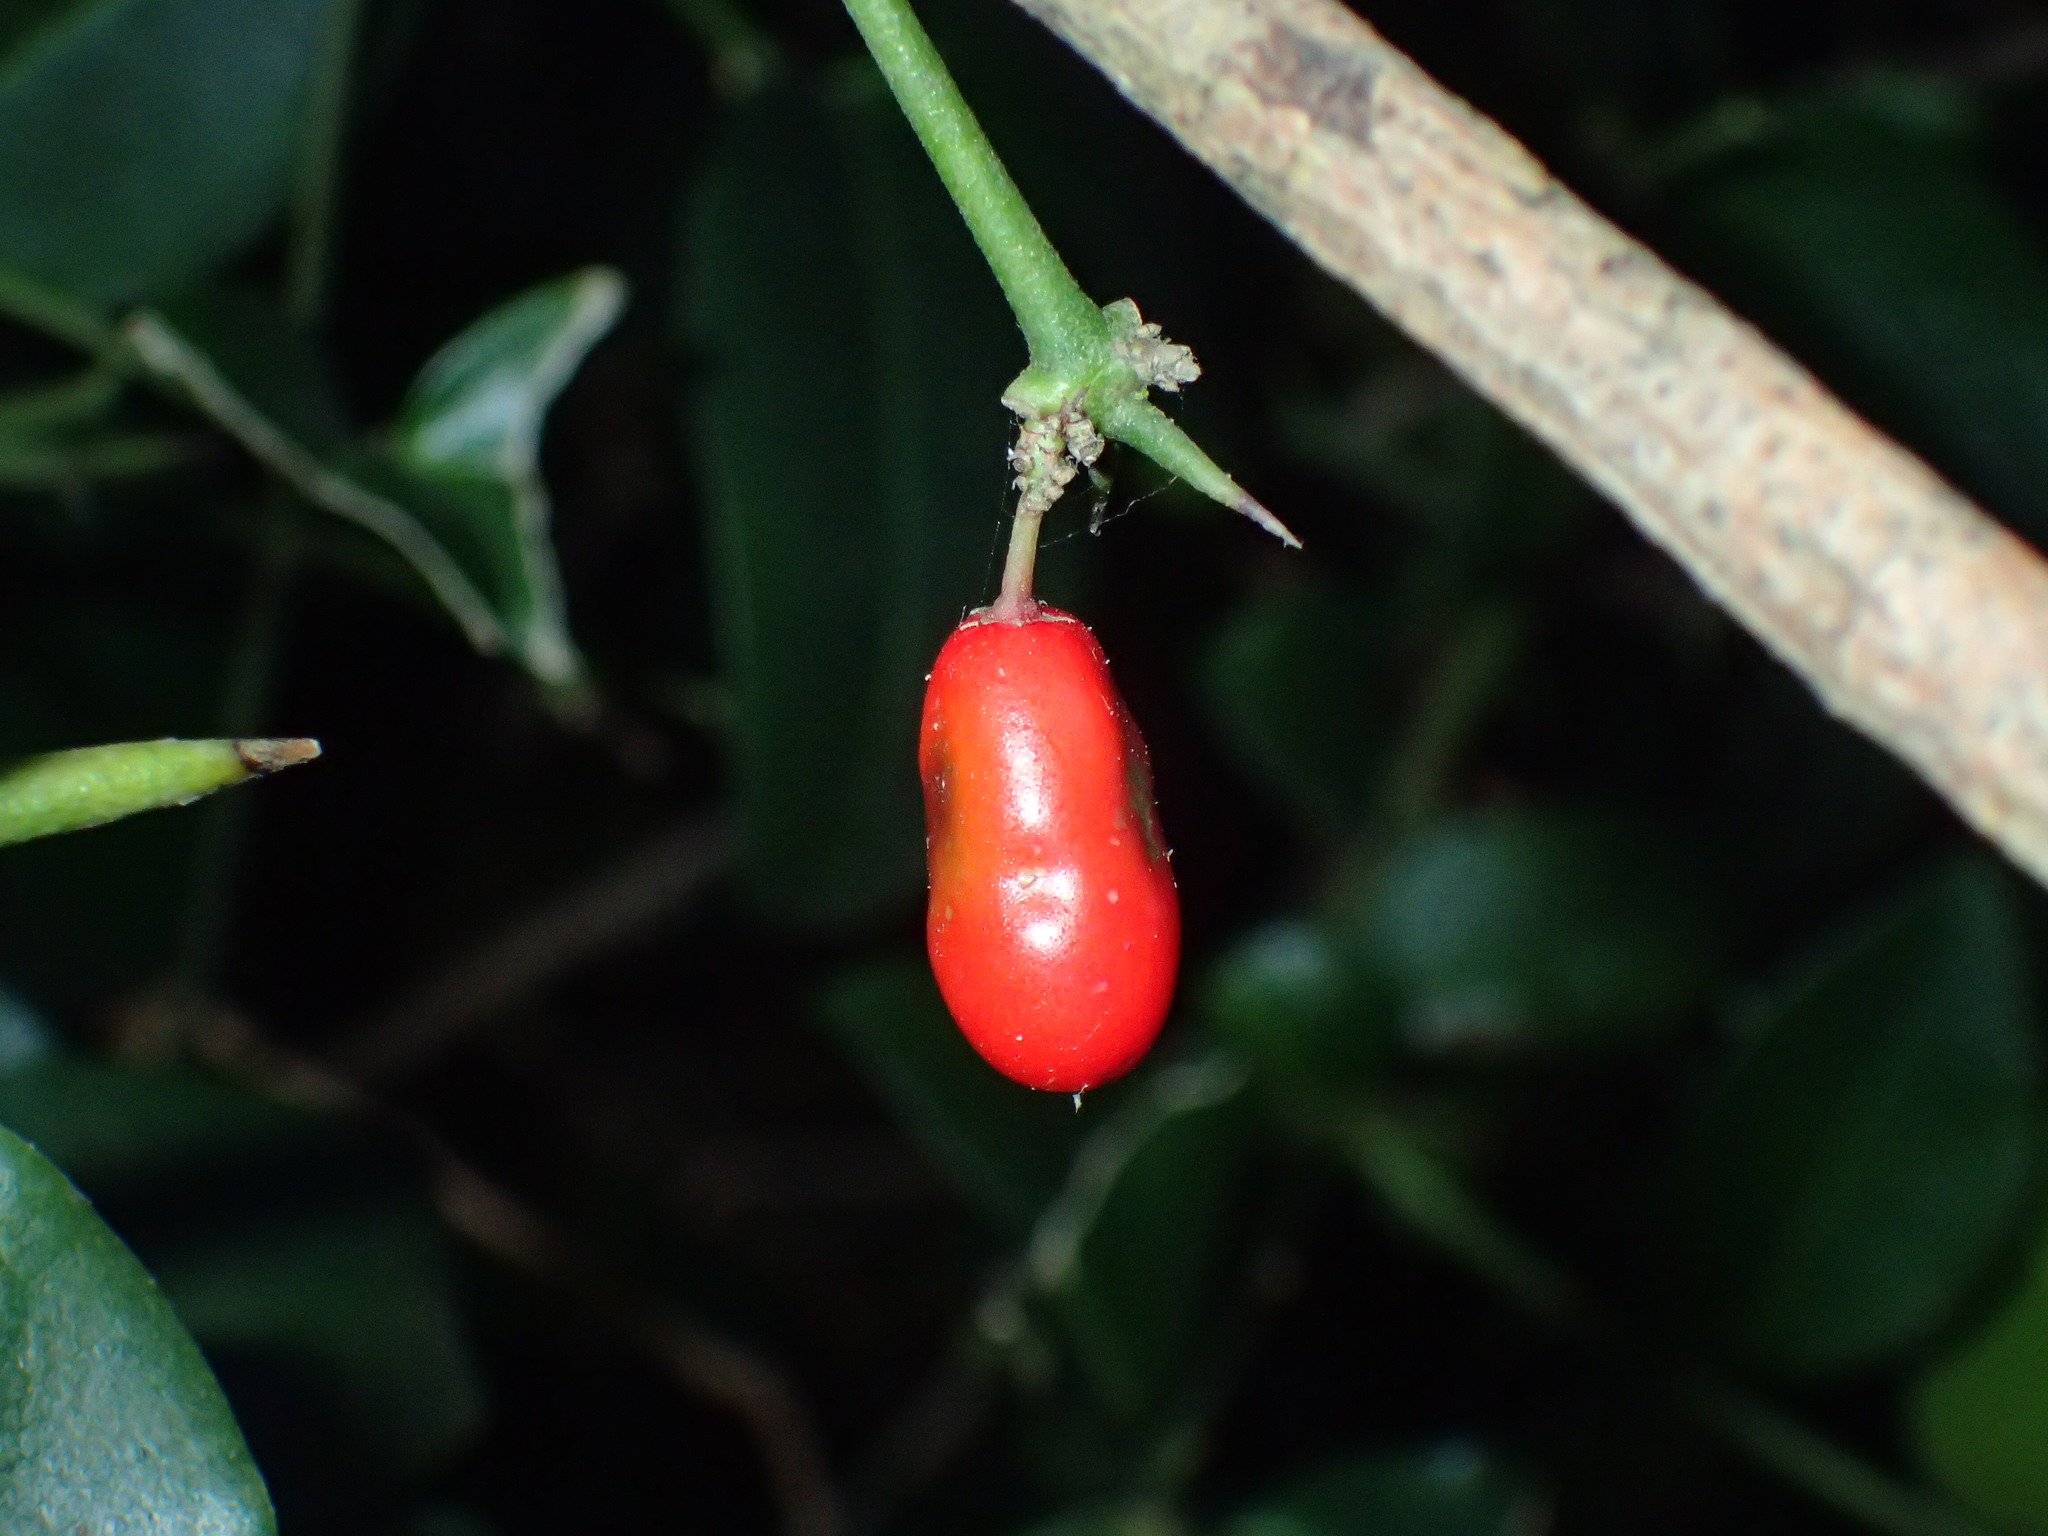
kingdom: Plantae
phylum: Tracheophyta
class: Magnoliopsida
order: Gentianales
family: Apocynaceae
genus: Carissa
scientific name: Carissa bispinosa
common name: Forest num-num
